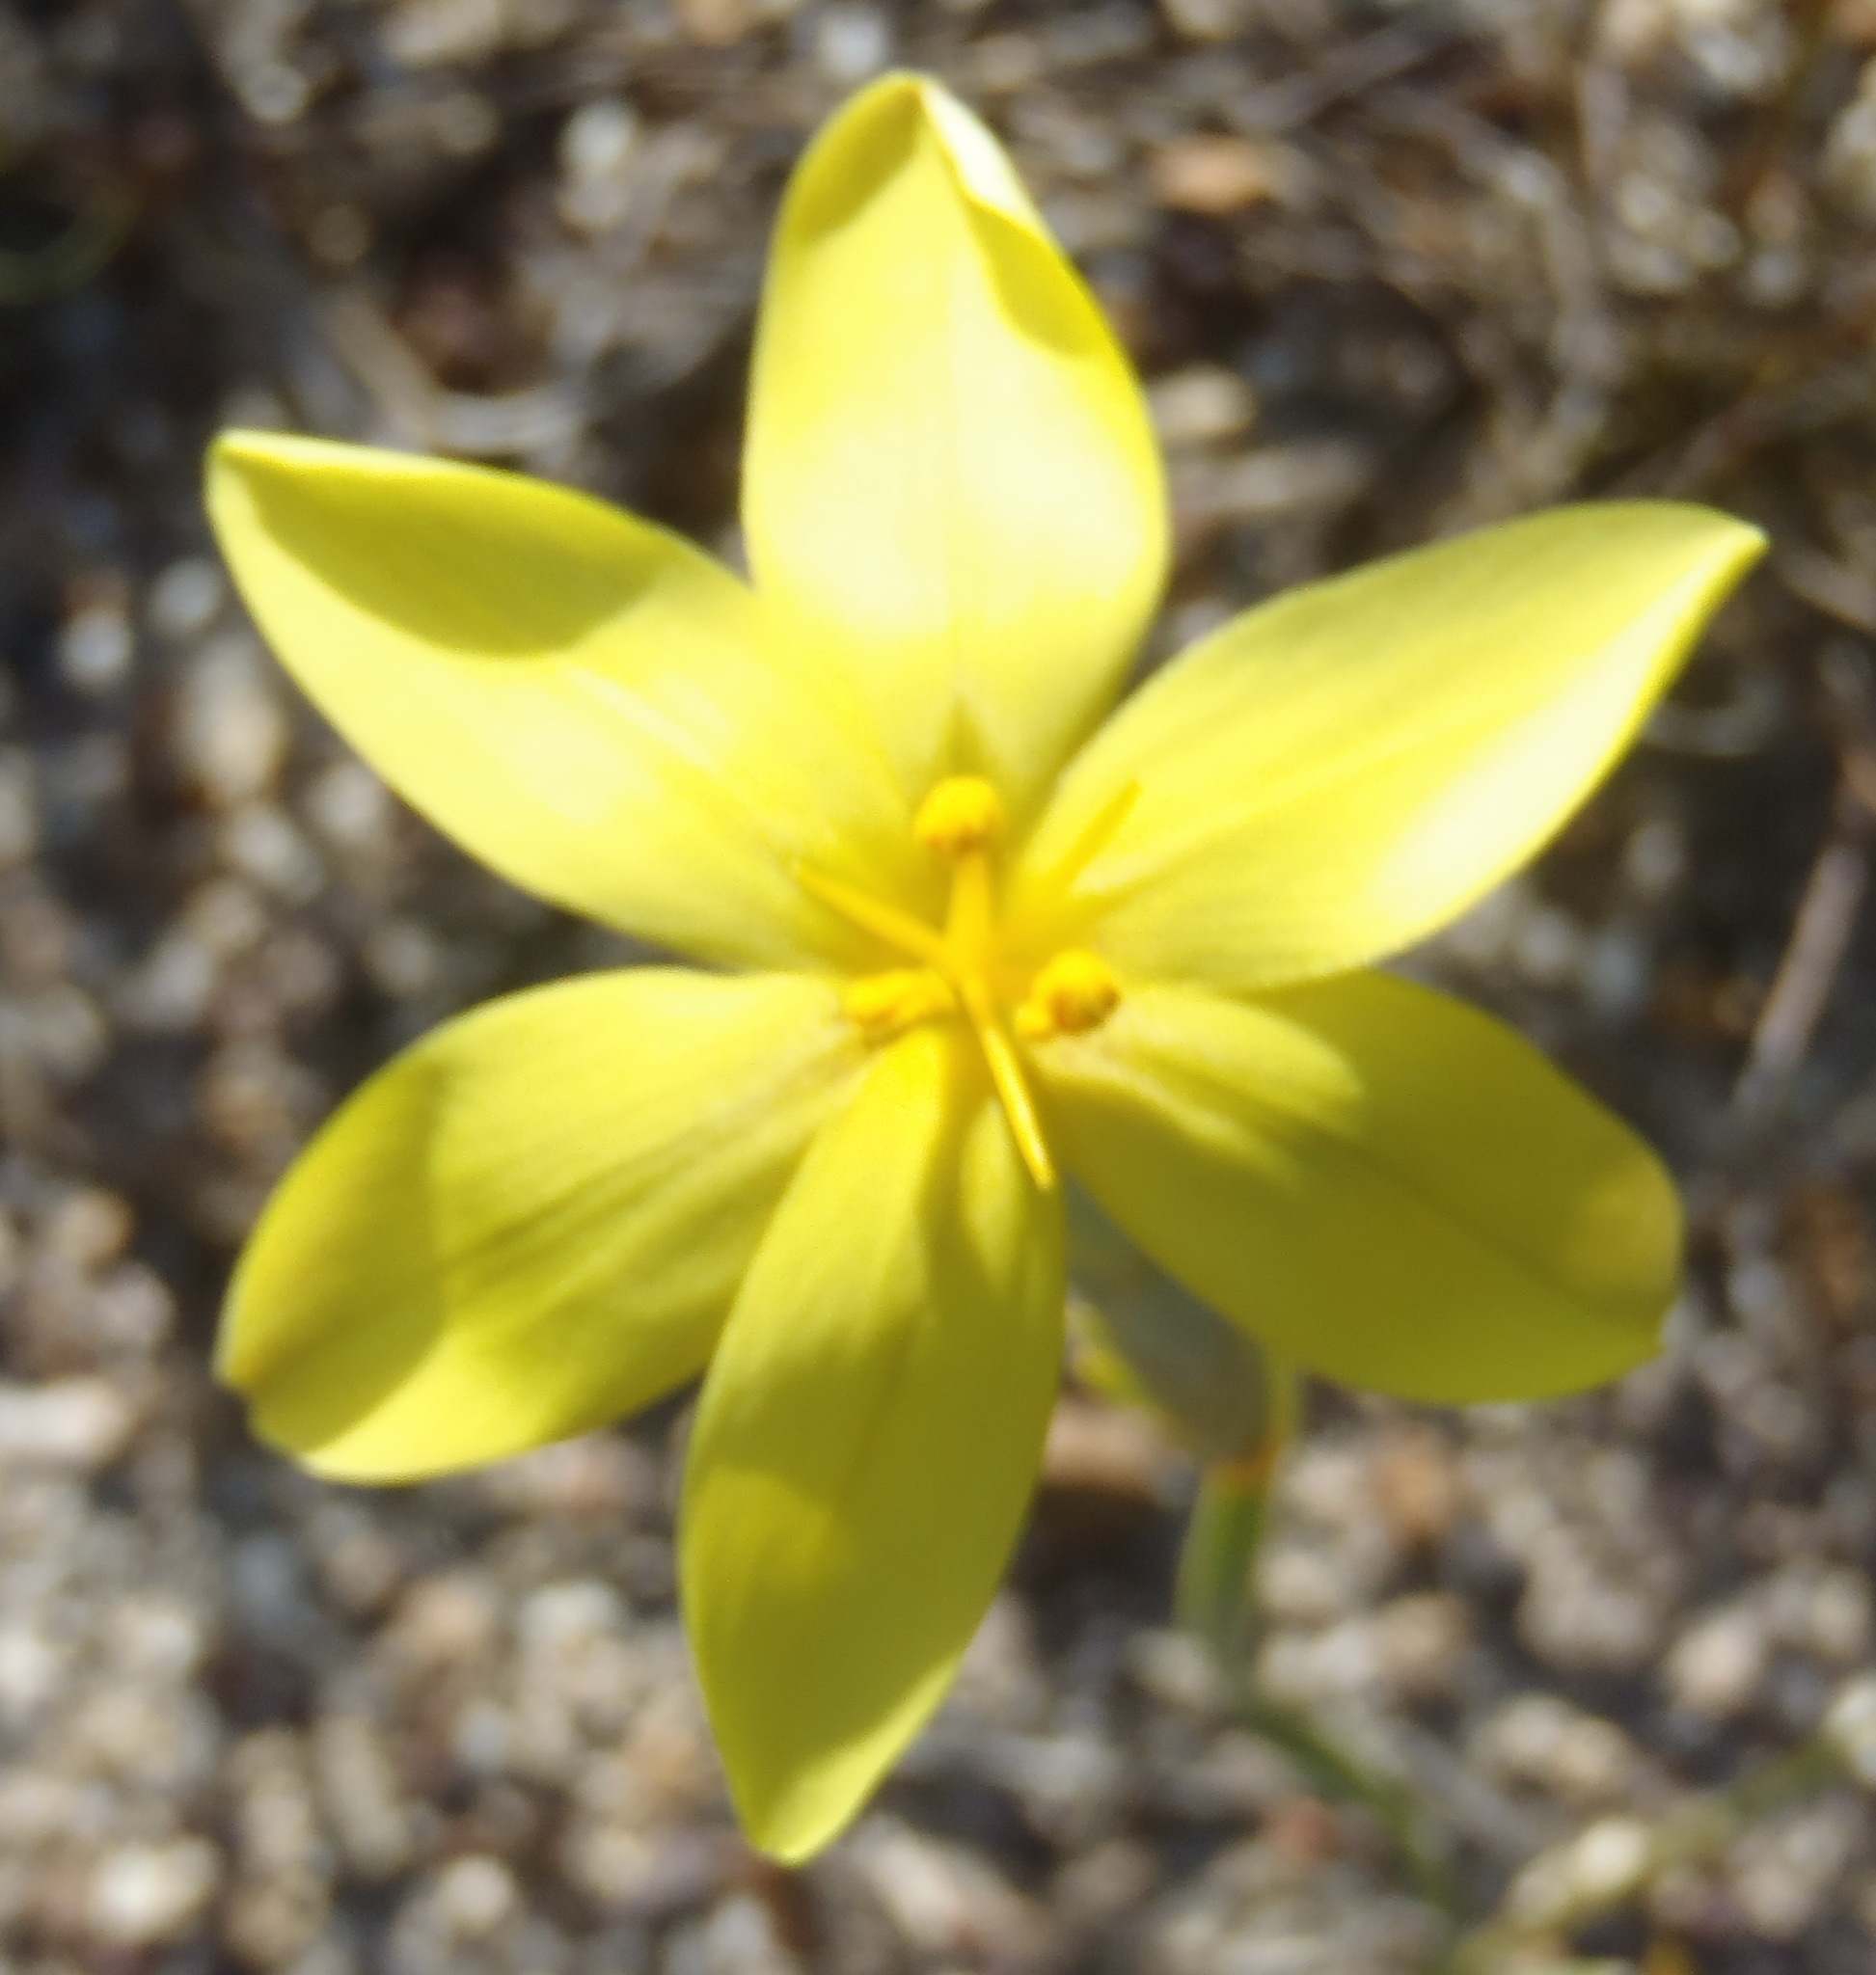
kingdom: Plantae
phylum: Tracheophyta
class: Liliopsida
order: Asparagales
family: Iridaceae
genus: Moraea
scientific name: Moraea lewisiae
